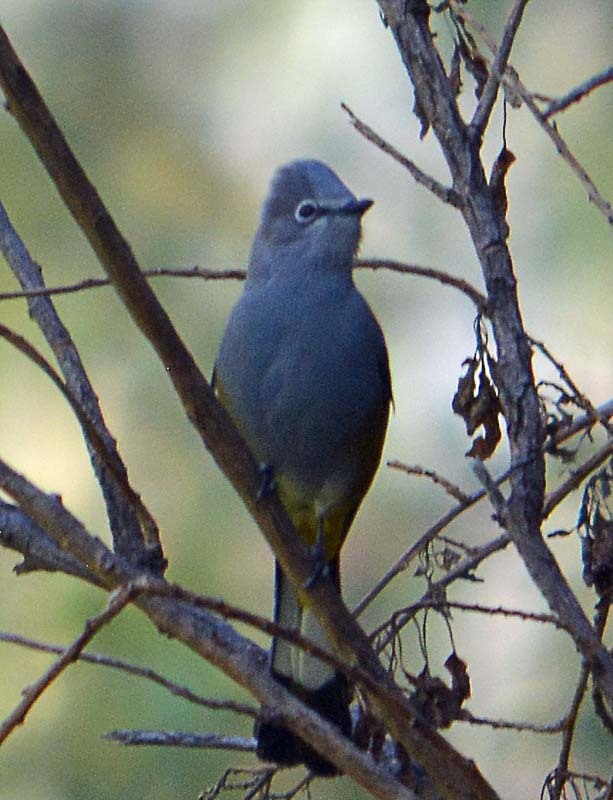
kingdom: Animalia
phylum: Chordata
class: Aves
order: Passeriformes
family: Ptilogonatidae
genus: Ptilogonys
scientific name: Ptilogonys cinereus
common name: Gray silky-flycatcher
